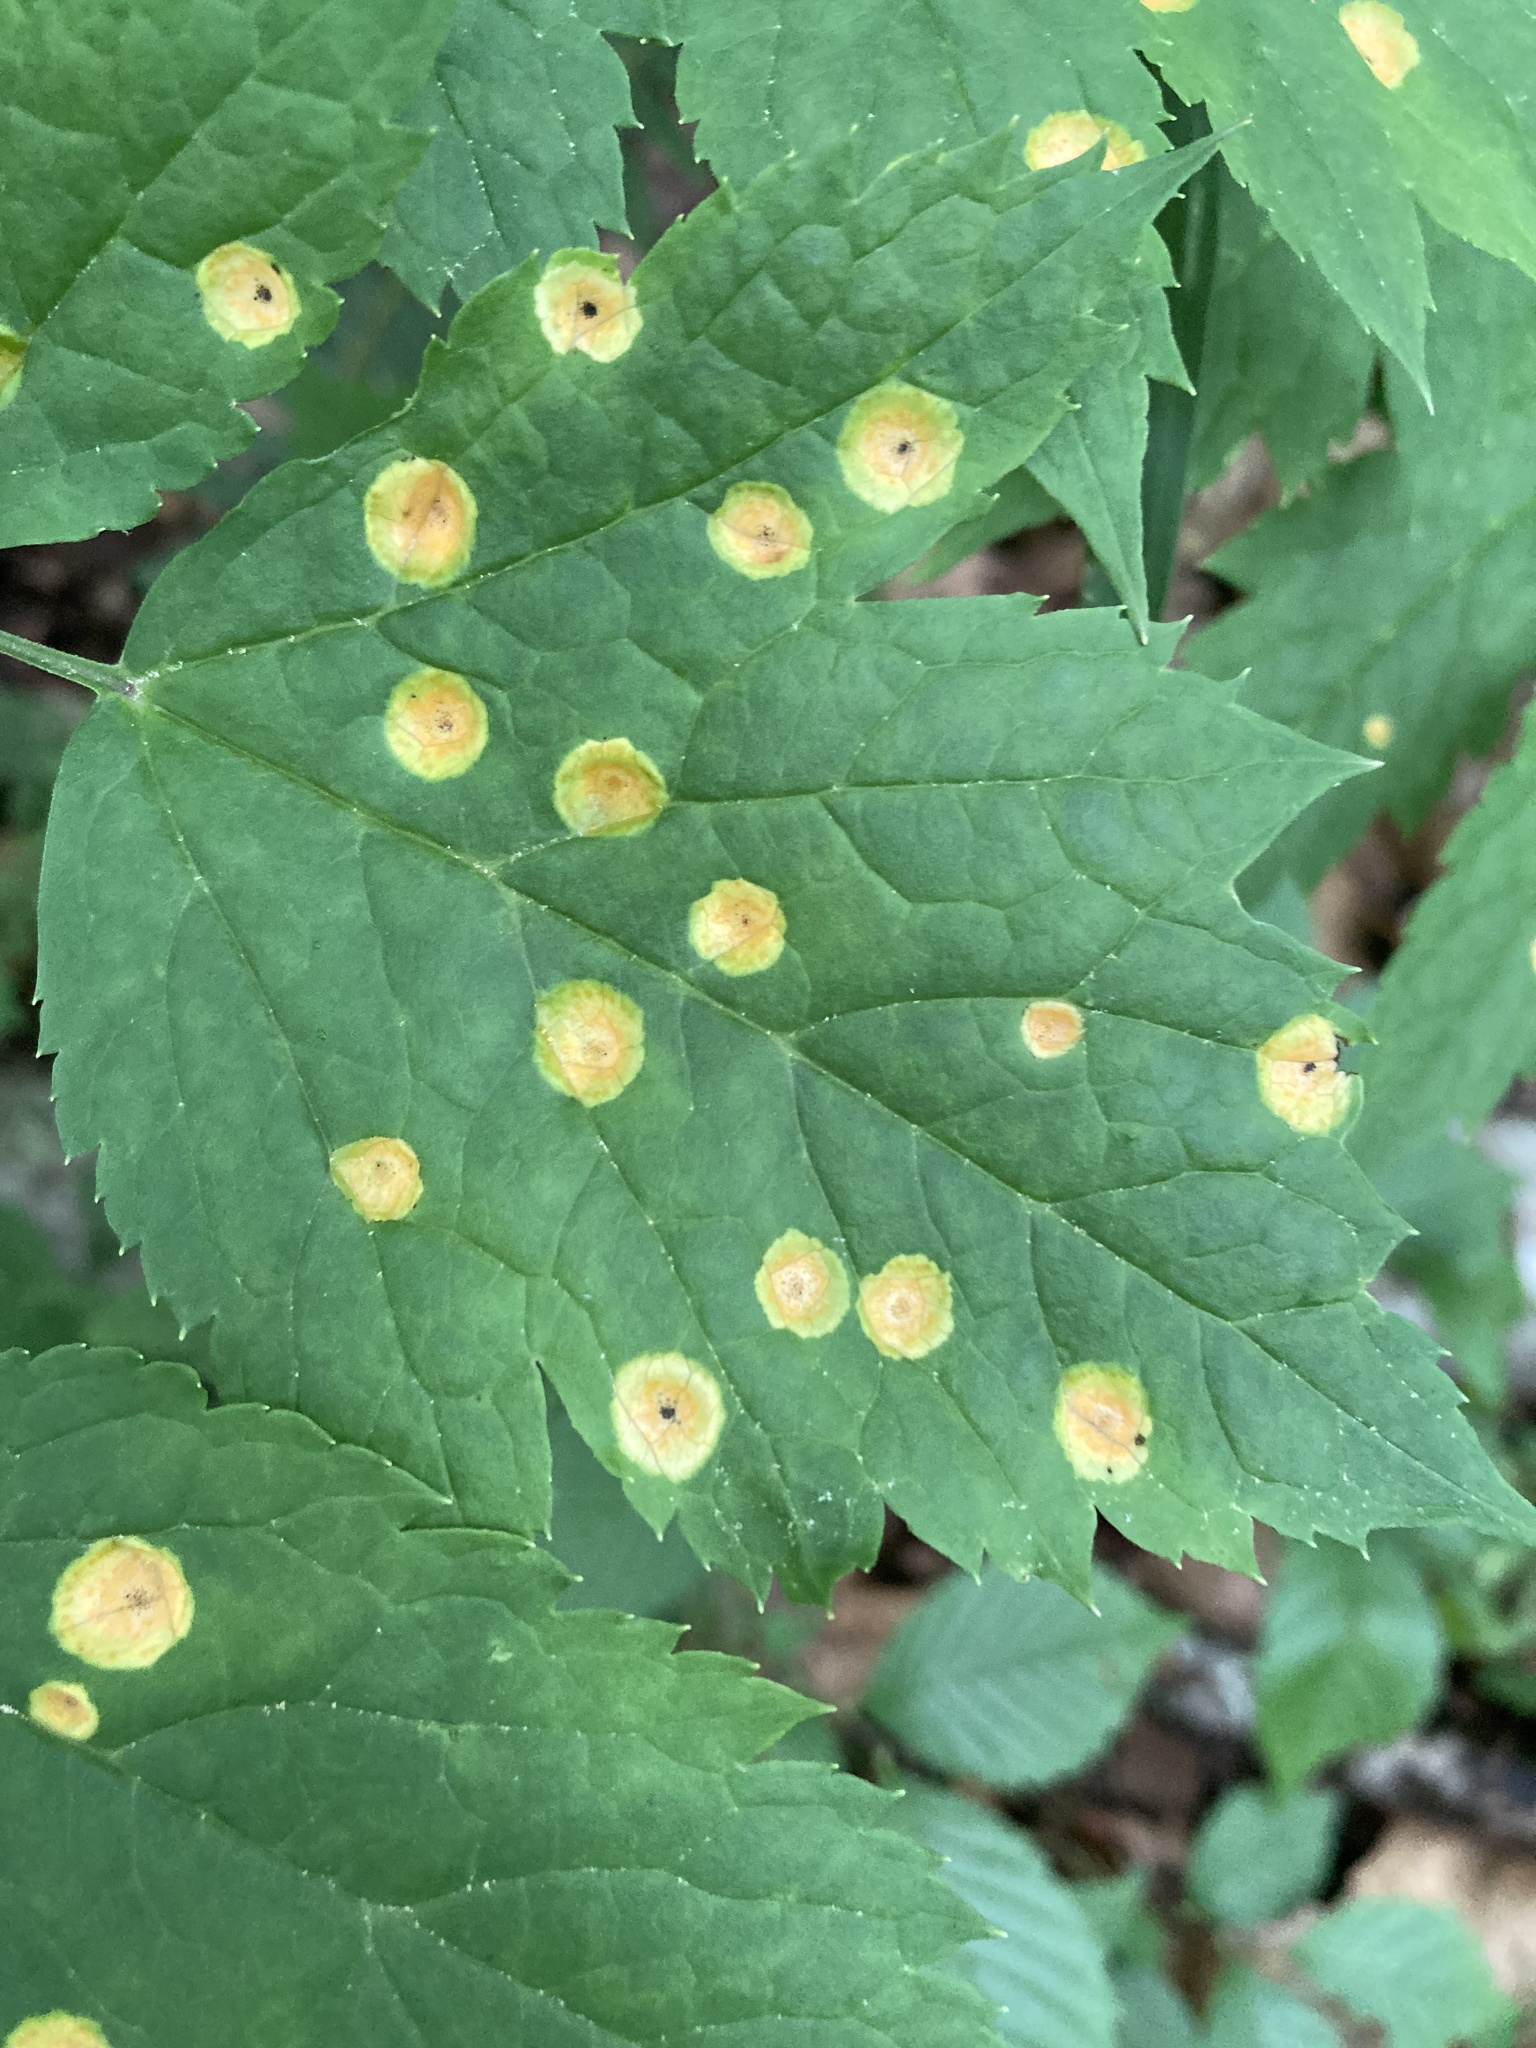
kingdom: Animalia
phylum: Arthropoda
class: Insecta
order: Diptera
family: Cecidomyiidae
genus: Acericecis
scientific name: Acericecis ocellaris
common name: Ocellate gall midge
